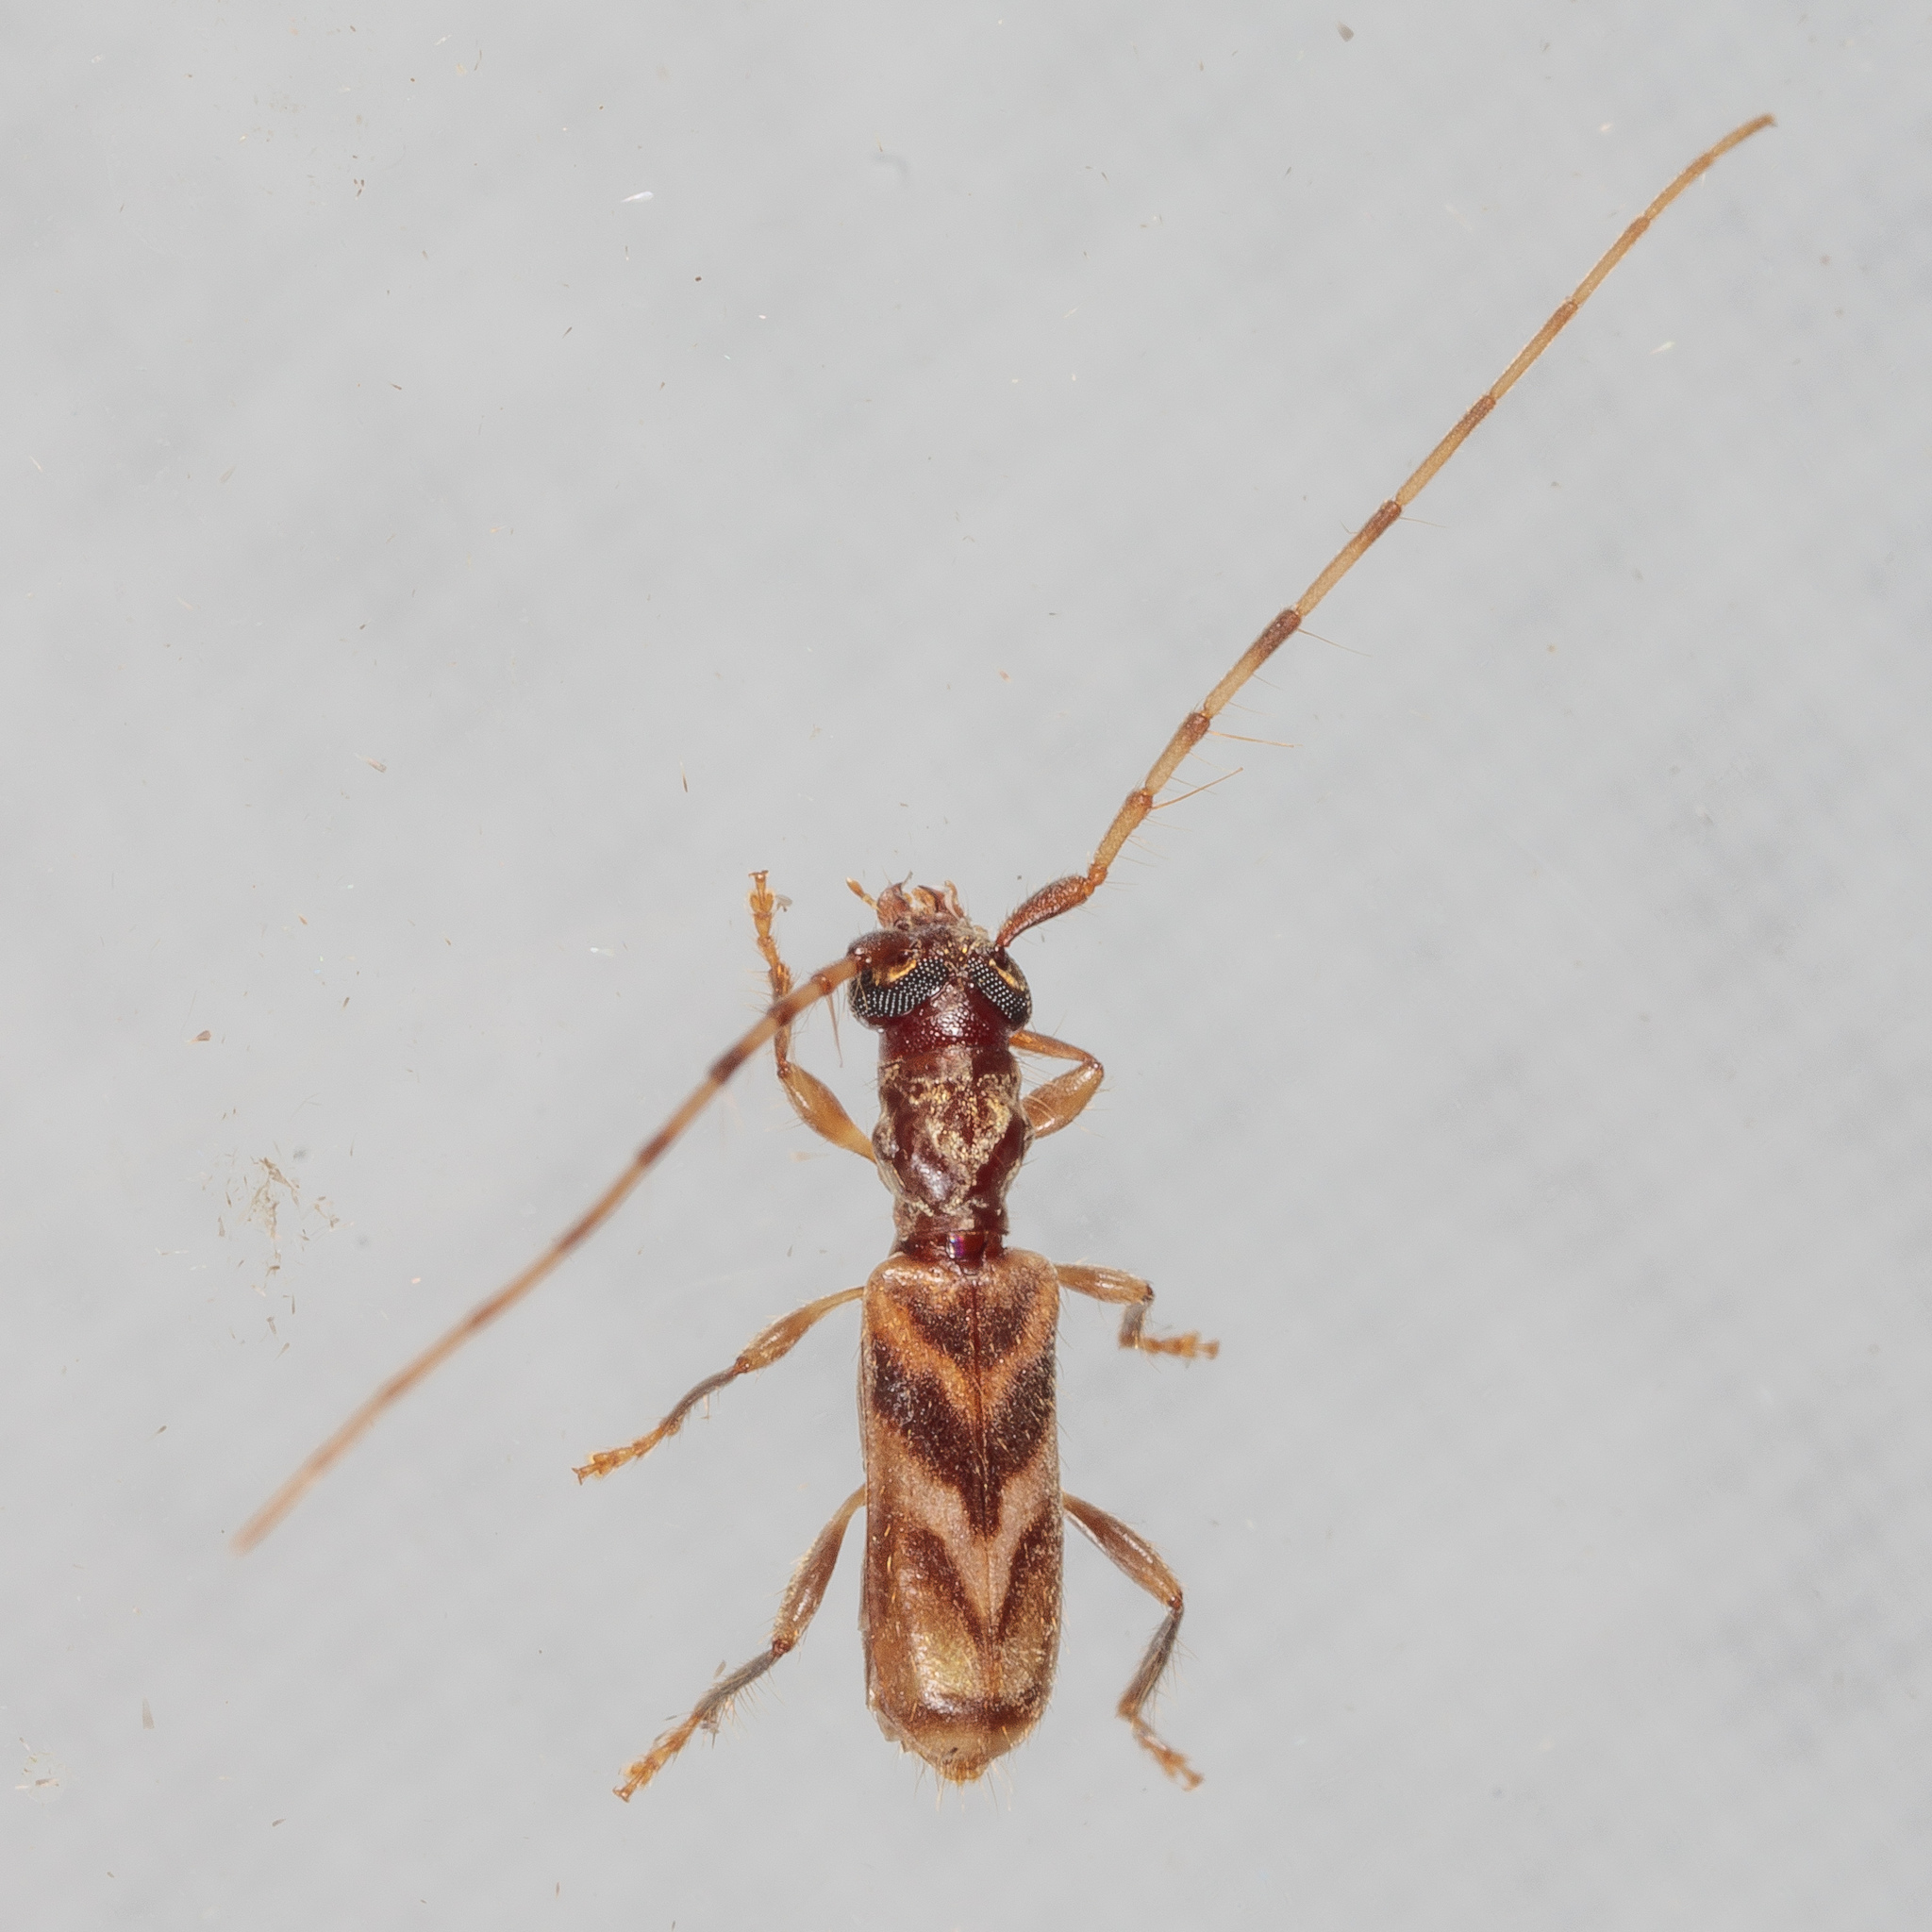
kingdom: Animalia
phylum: Arthropoda
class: Insecta
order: Coleoptera
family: Cerambycidae
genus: Stenhomalus
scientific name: Stenhomalus taiwanus
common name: Taiwan slender longhorned beetle
